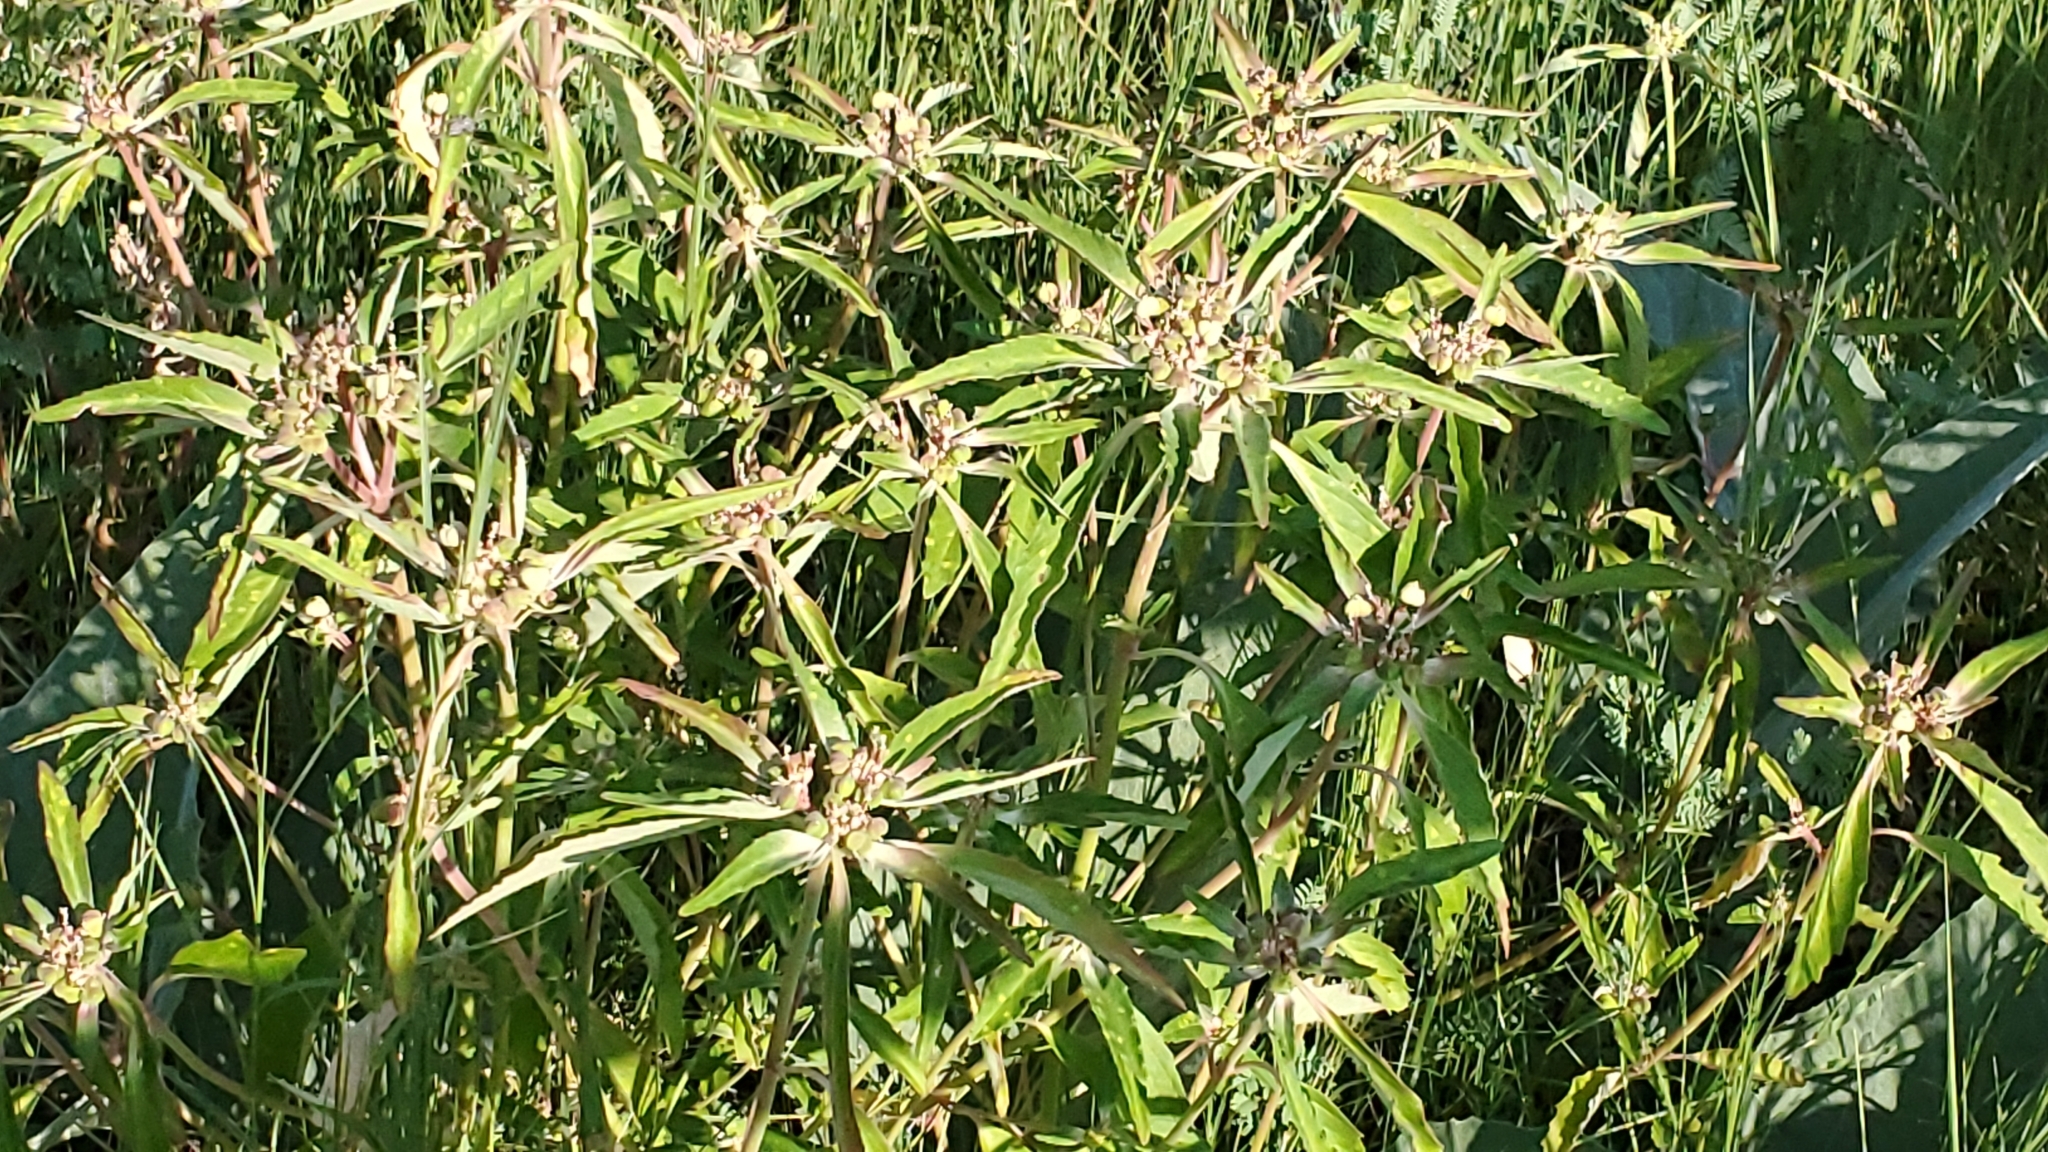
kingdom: Plantae
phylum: Tracheophyta
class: Magnoliopsida
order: Malpighiales
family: Euphorbiaceae
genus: Euphorbia
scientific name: Euphorbia davidii
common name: David's spurge
